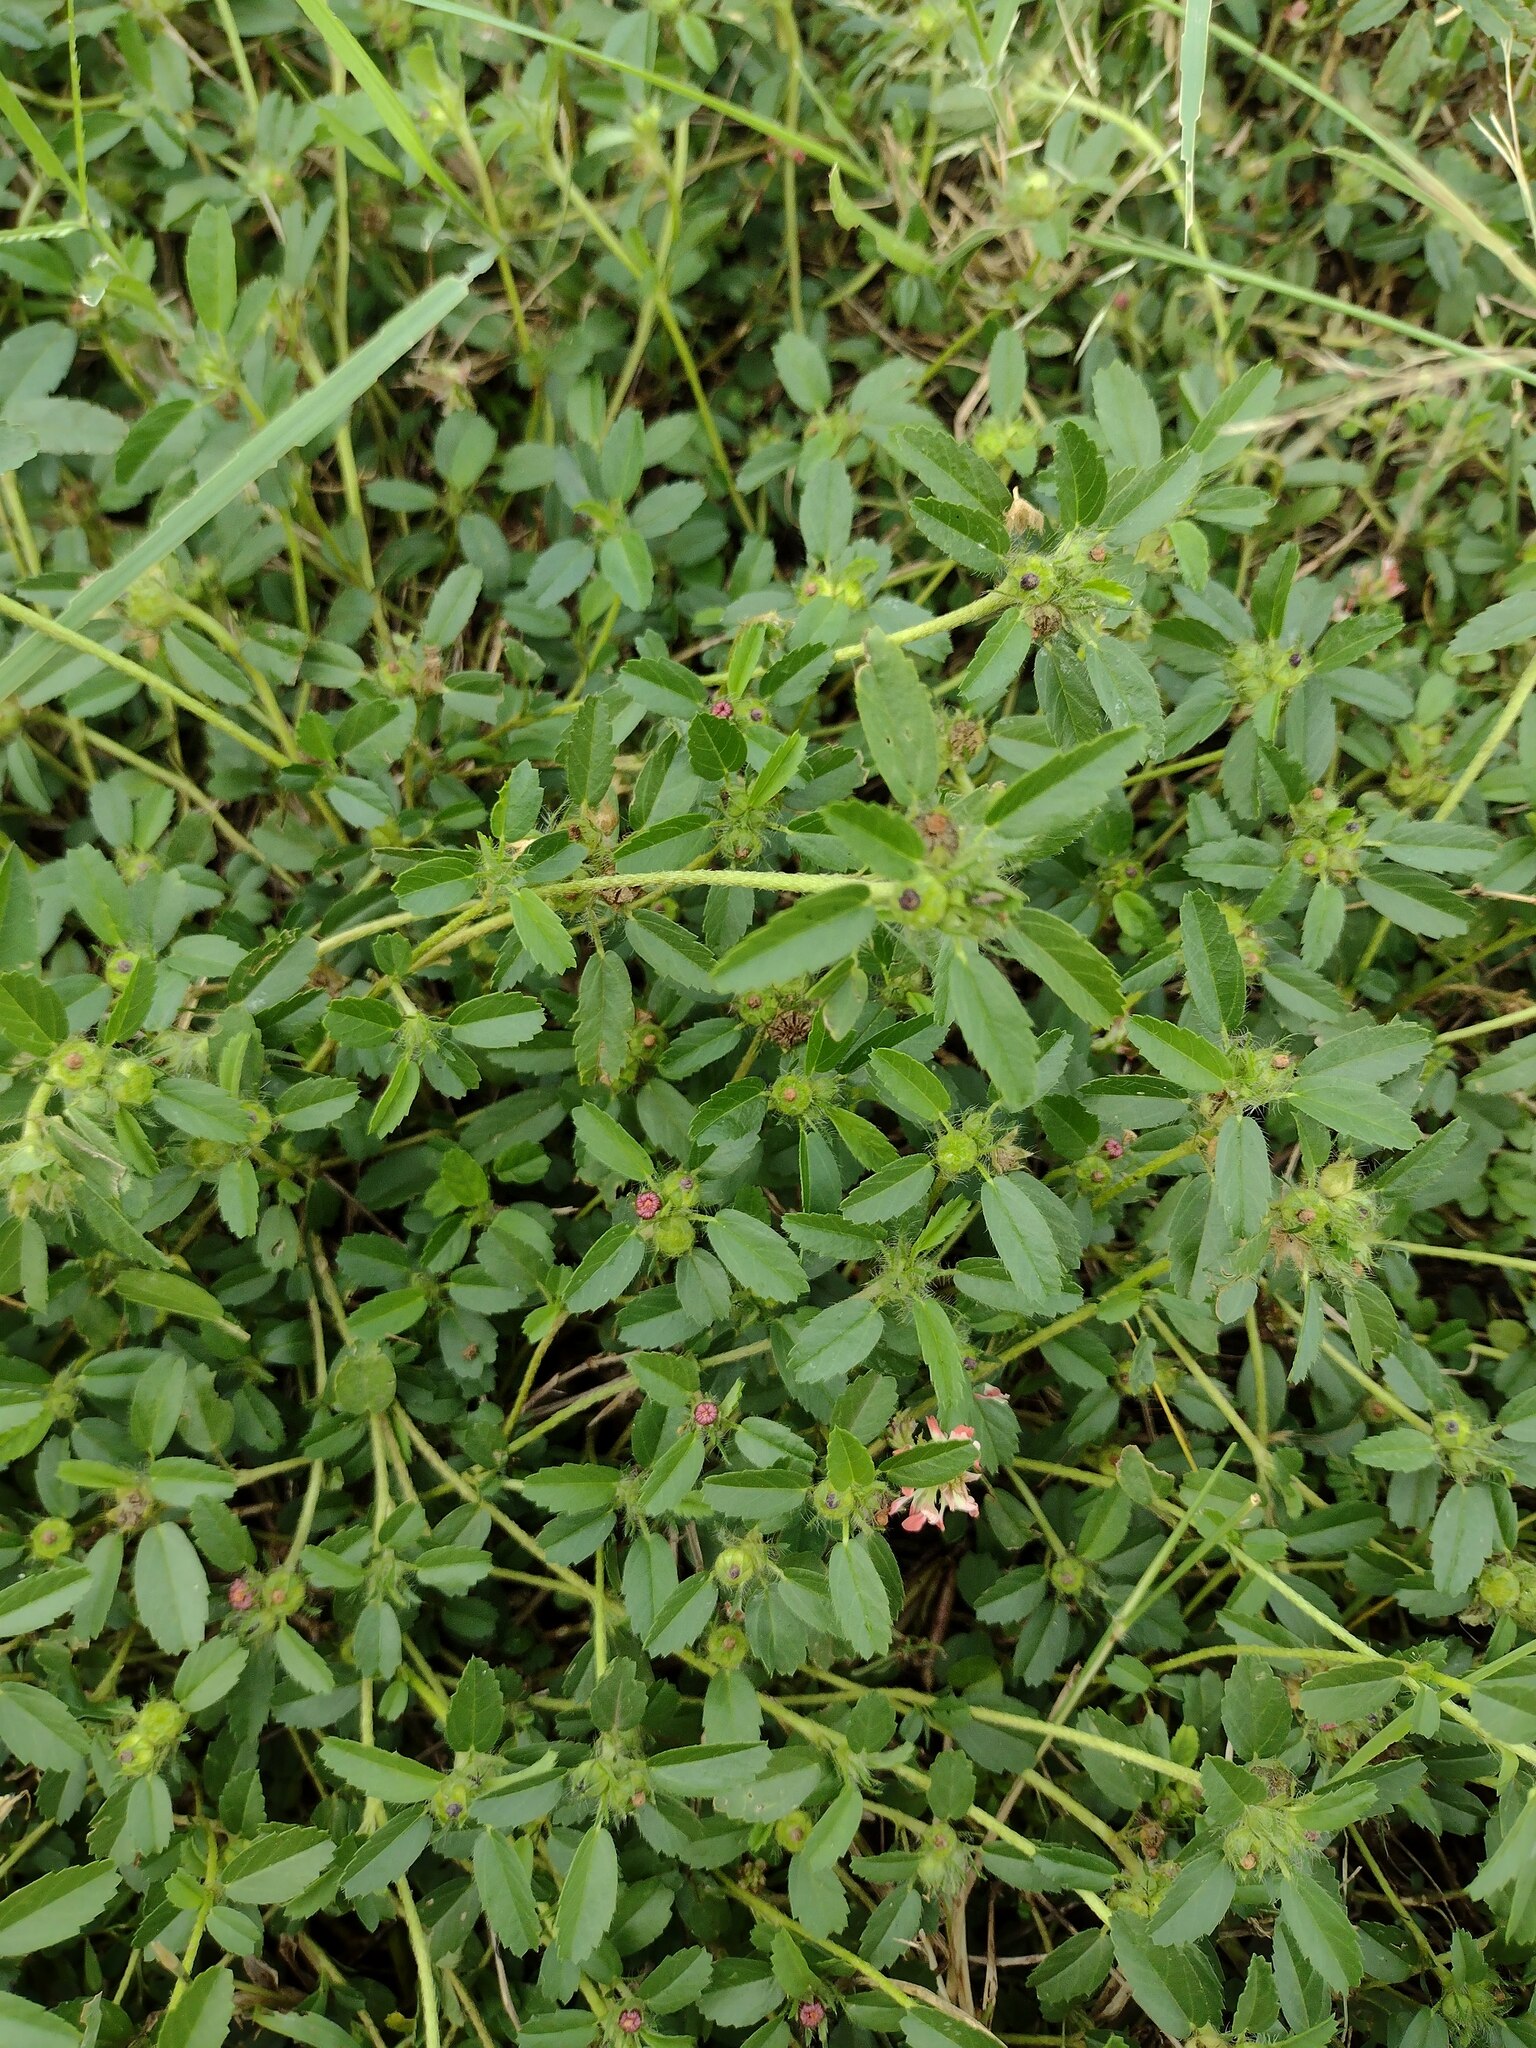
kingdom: Plantae
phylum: Tracheophyta
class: Magnoliopsida
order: Malvales
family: Malvaceae
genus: Sida
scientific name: Sida ciliaris
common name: Bracted fanpetals
